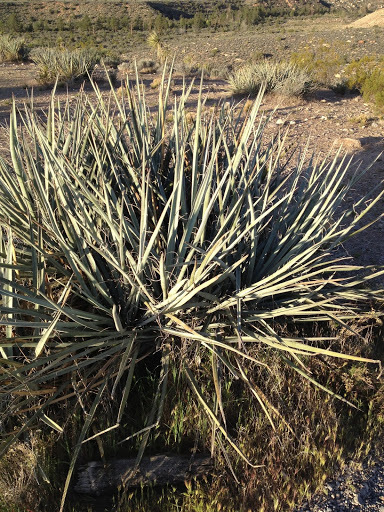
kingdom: Plantae
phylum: Tracheophyta
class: Liliopsida
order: Asparagales
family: Asparagaceae
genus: Yucca
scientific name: Yucca baccata
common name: Banana yucca
